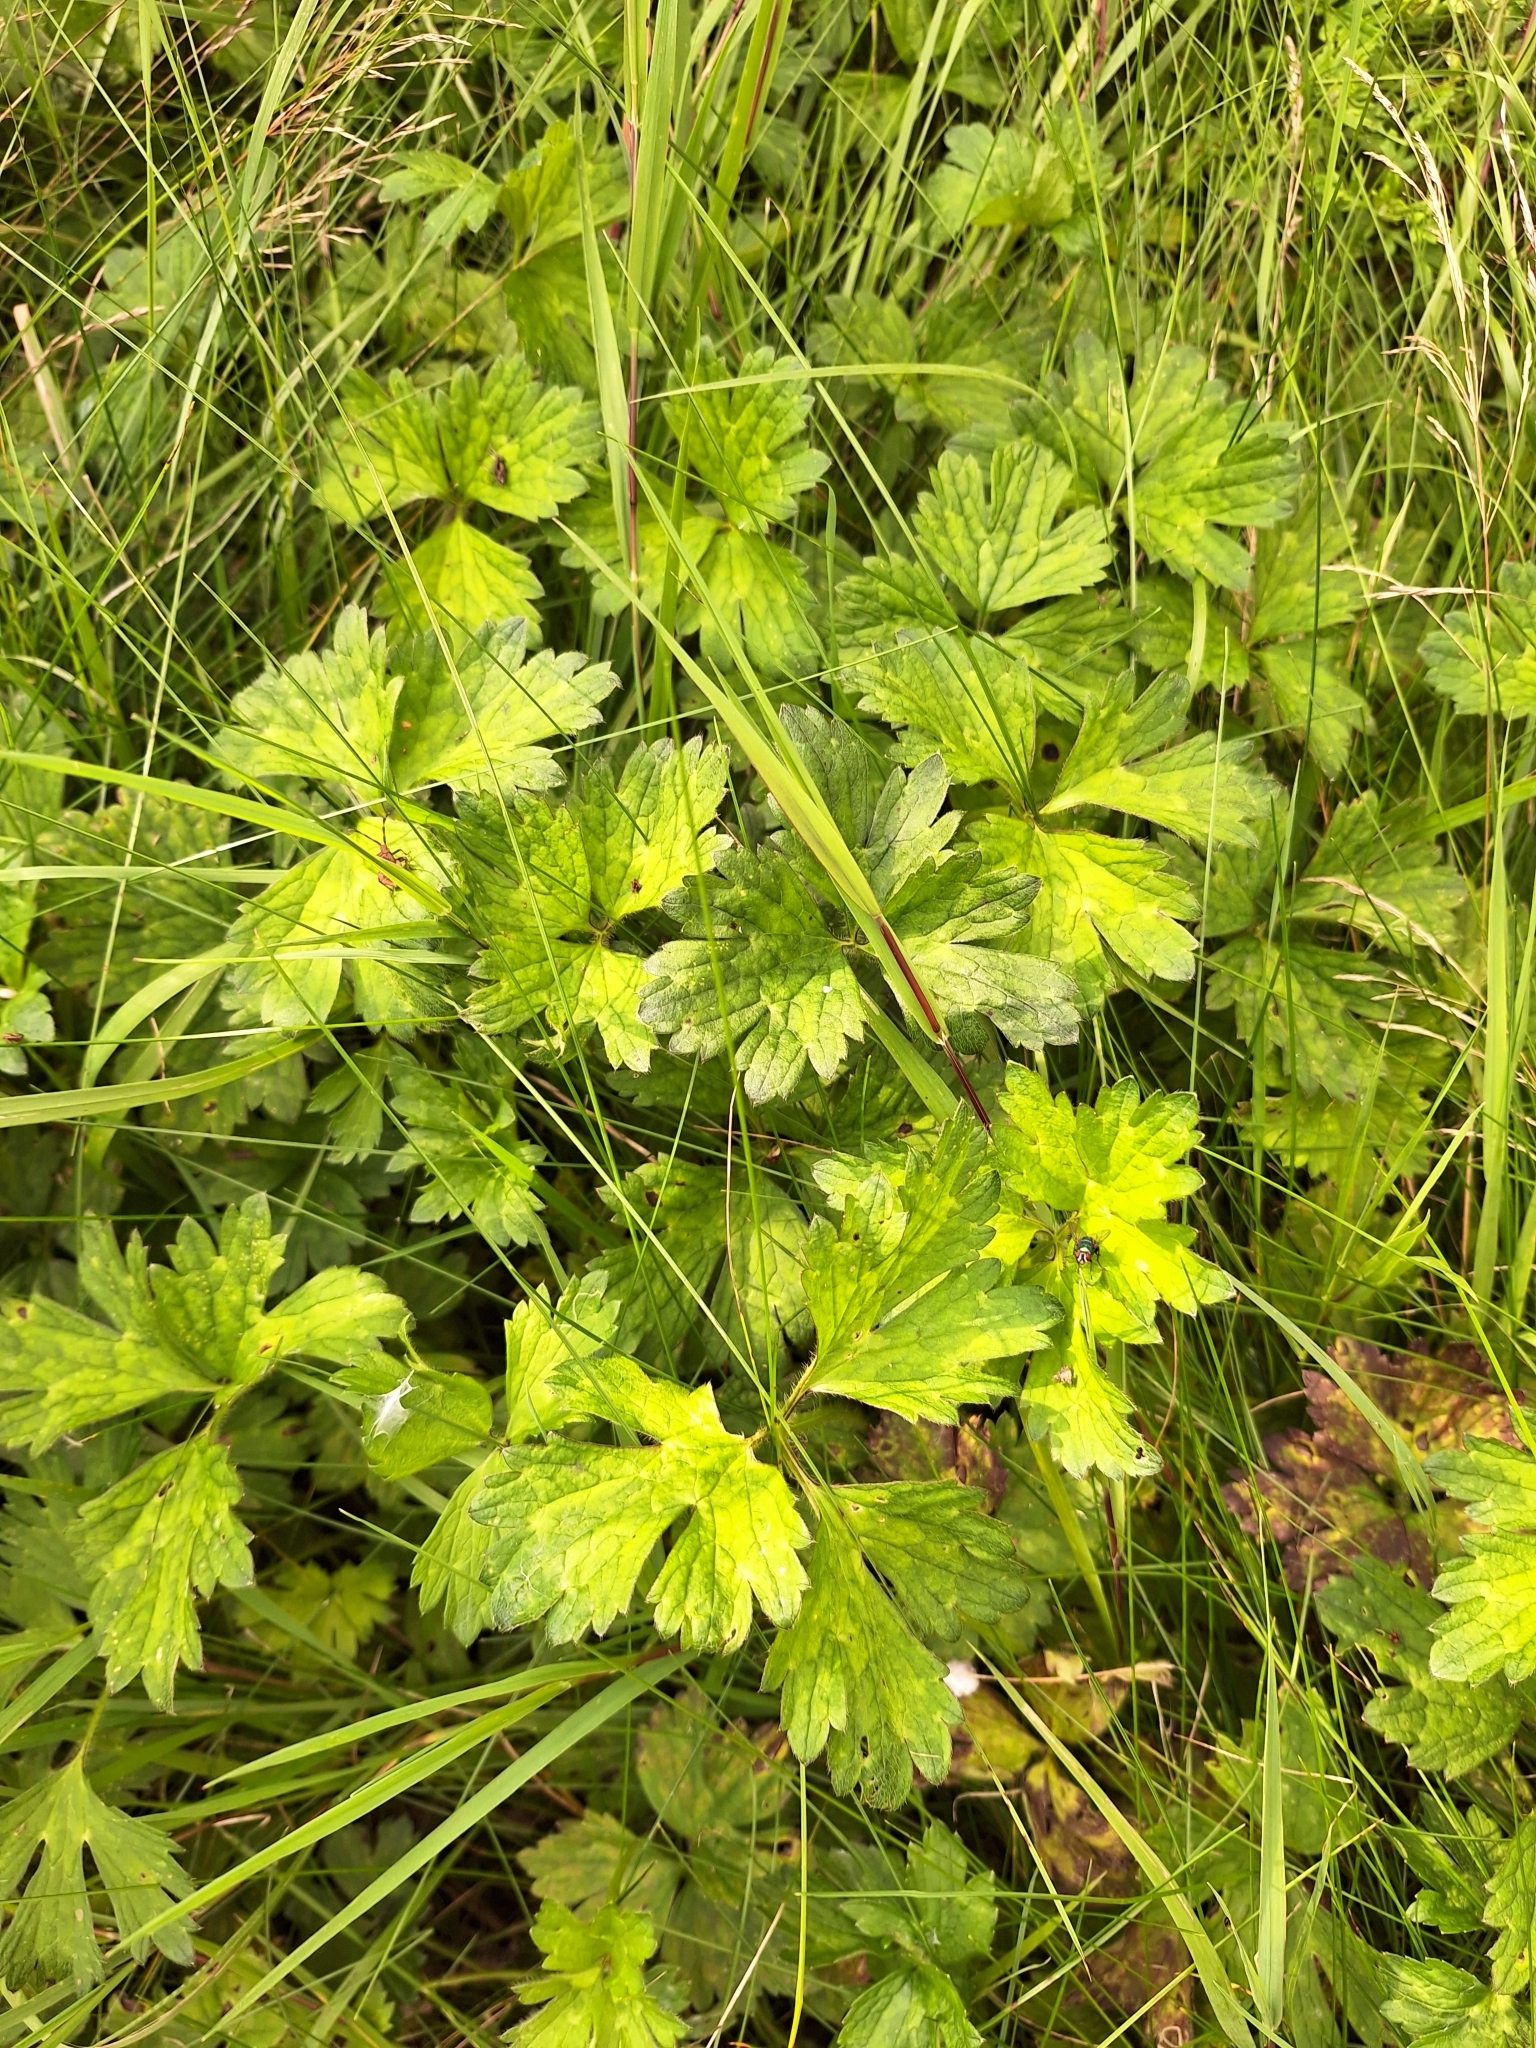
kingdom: Plantae
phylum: Tracheophyta
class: Magnoliopsida
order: Ranunculales
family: Ranunculaceae
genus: Ranunculus
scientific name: Ranunculus repens
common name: Creeping buttercup
